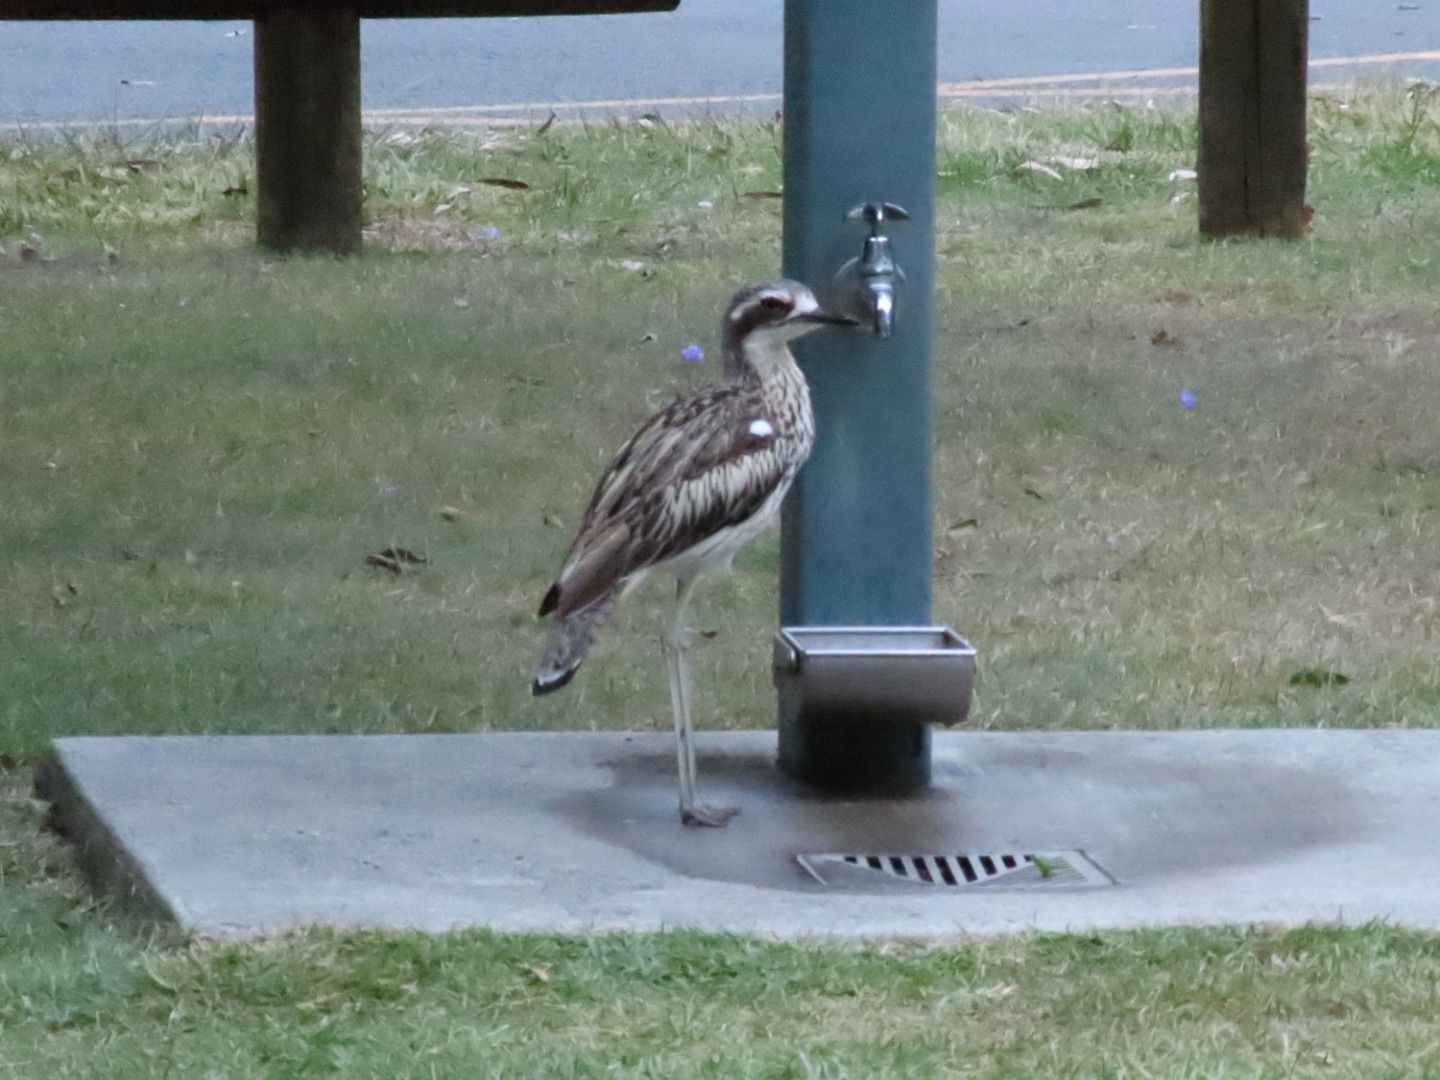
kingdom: Animalia
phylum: Chordata
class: Aves
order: Charadriiformes
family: Burhinidae
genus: Burhinus
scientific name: Burhinus grallarius
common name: Bush stone-curlew
